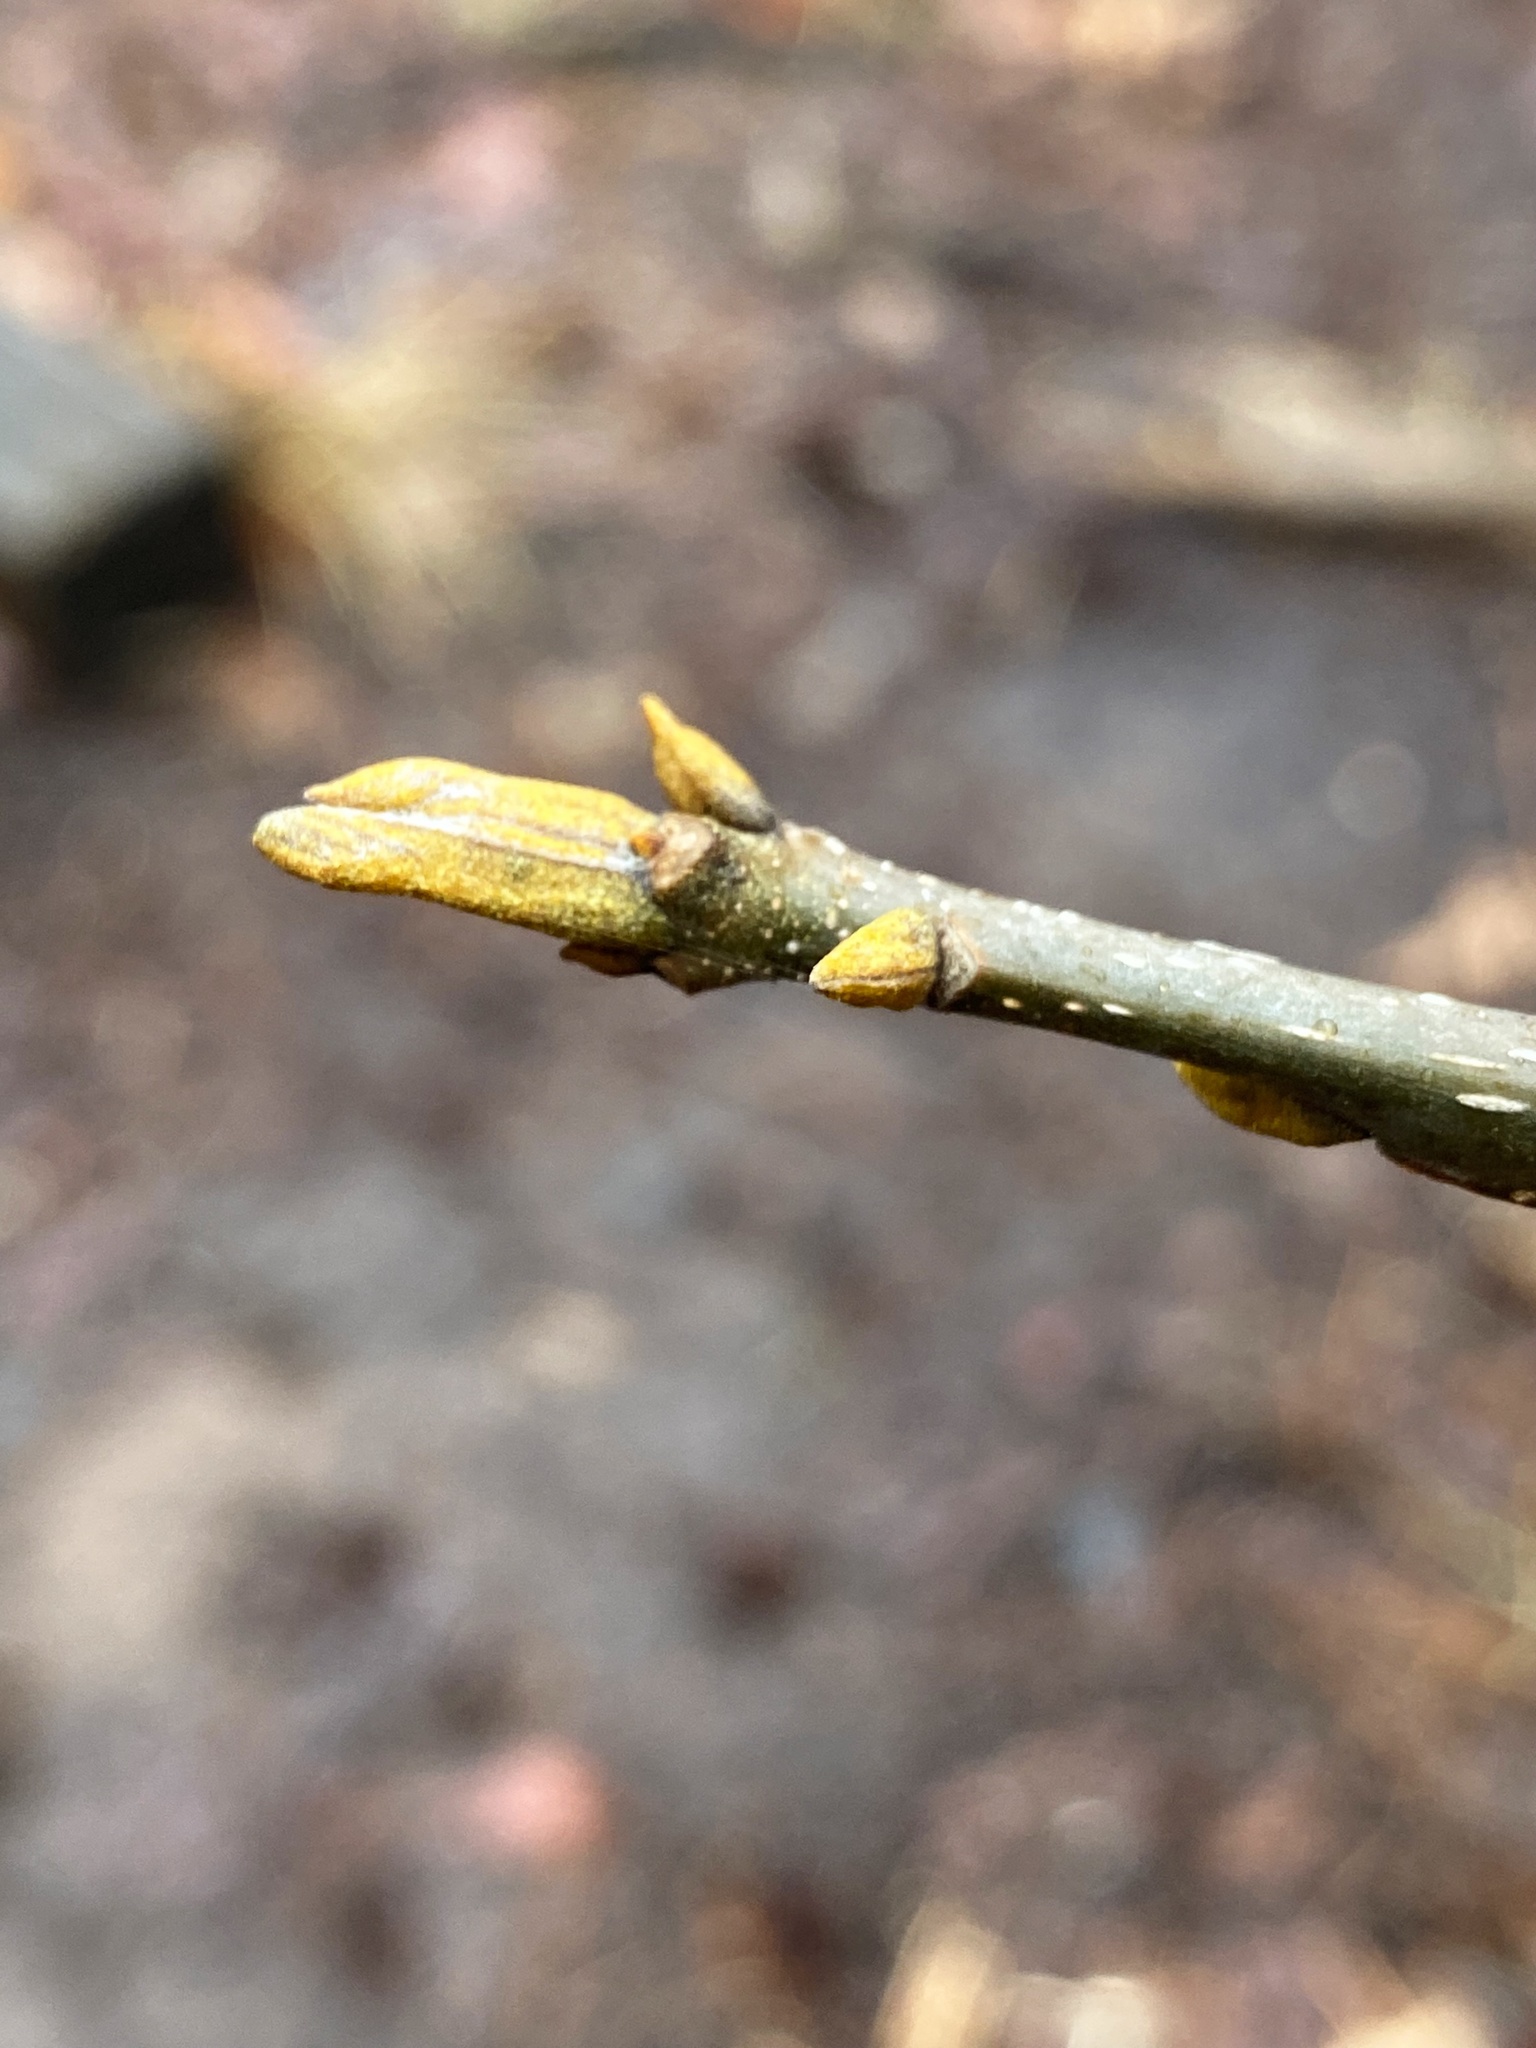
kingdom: Plantae
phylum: Tracheophyta
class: Magnoliopsida
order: Fagales
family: Juglandaceae
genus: Carya
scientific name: Carya cordiformis
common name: Bitternut hickory
